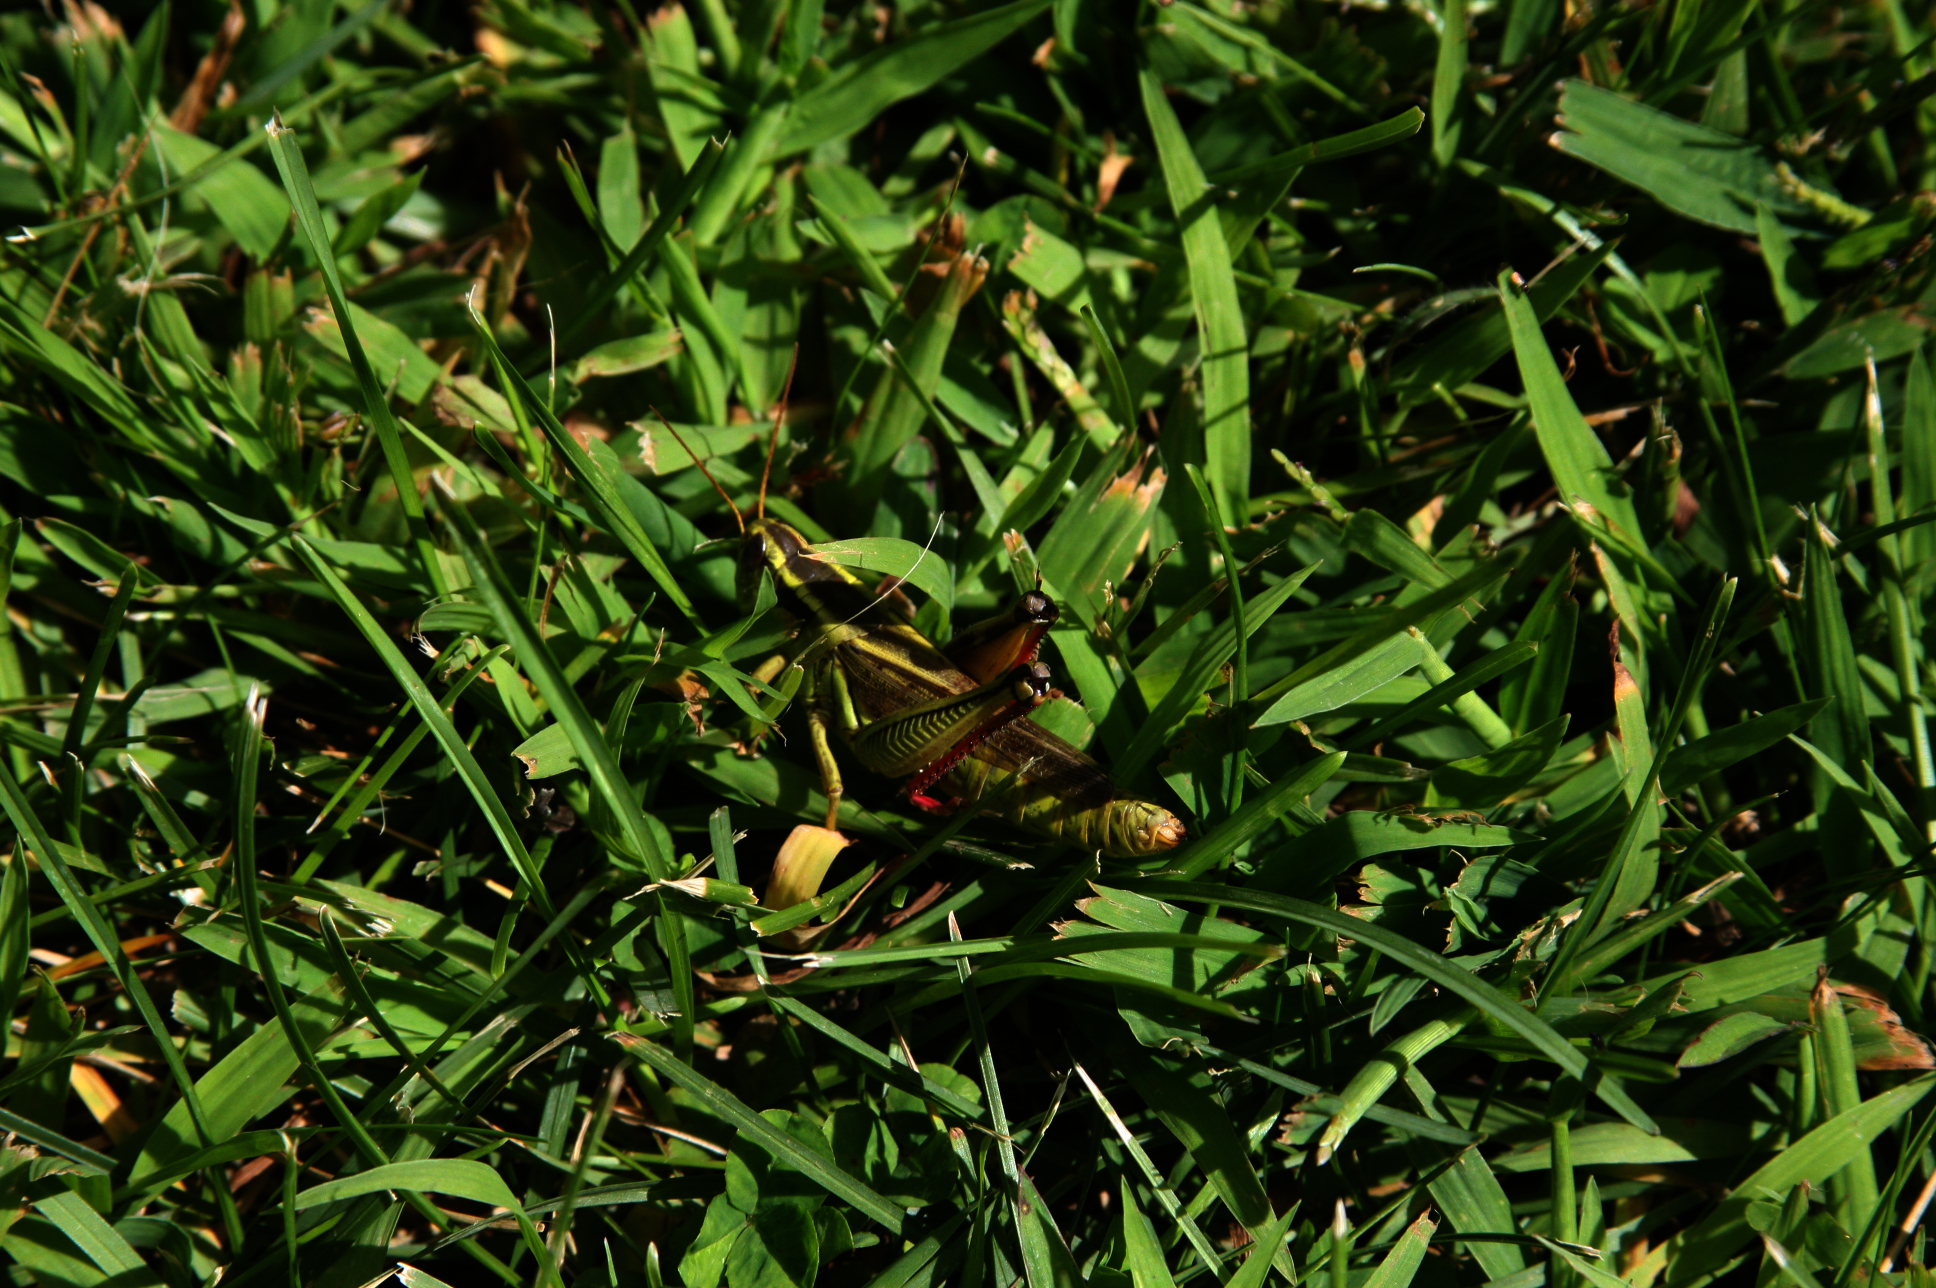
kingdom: Animalia
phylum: Arthropoda
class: Insecta
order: Orthoptera
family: Acrididae
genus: Melanoplus
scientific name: Melanoplus bivittatus
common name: Two-striped grasshopper
